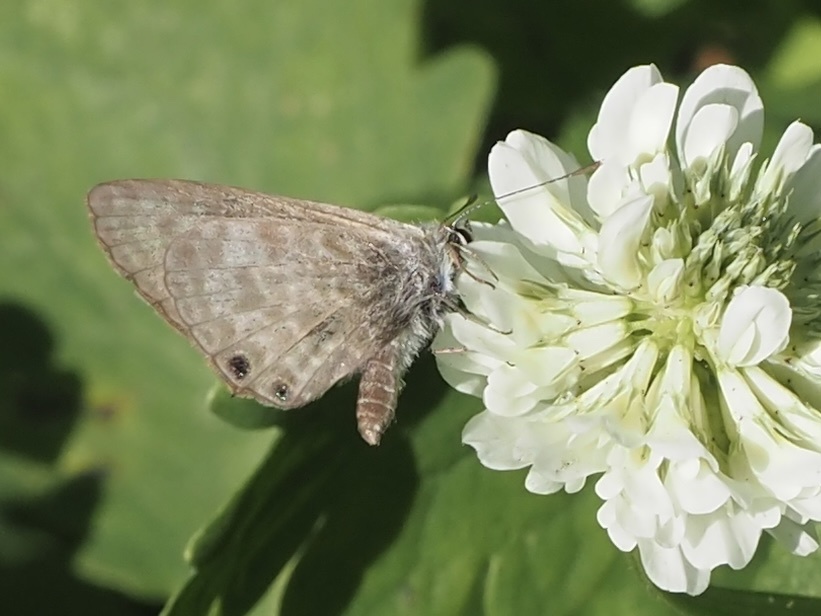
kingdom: Animalia
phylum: Arthropoda
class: Insecta
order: Lepidoptera
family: Lycaenidae
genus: Leptotes
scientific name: Leptotes pirithous
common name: Lang's short-tailed blue
